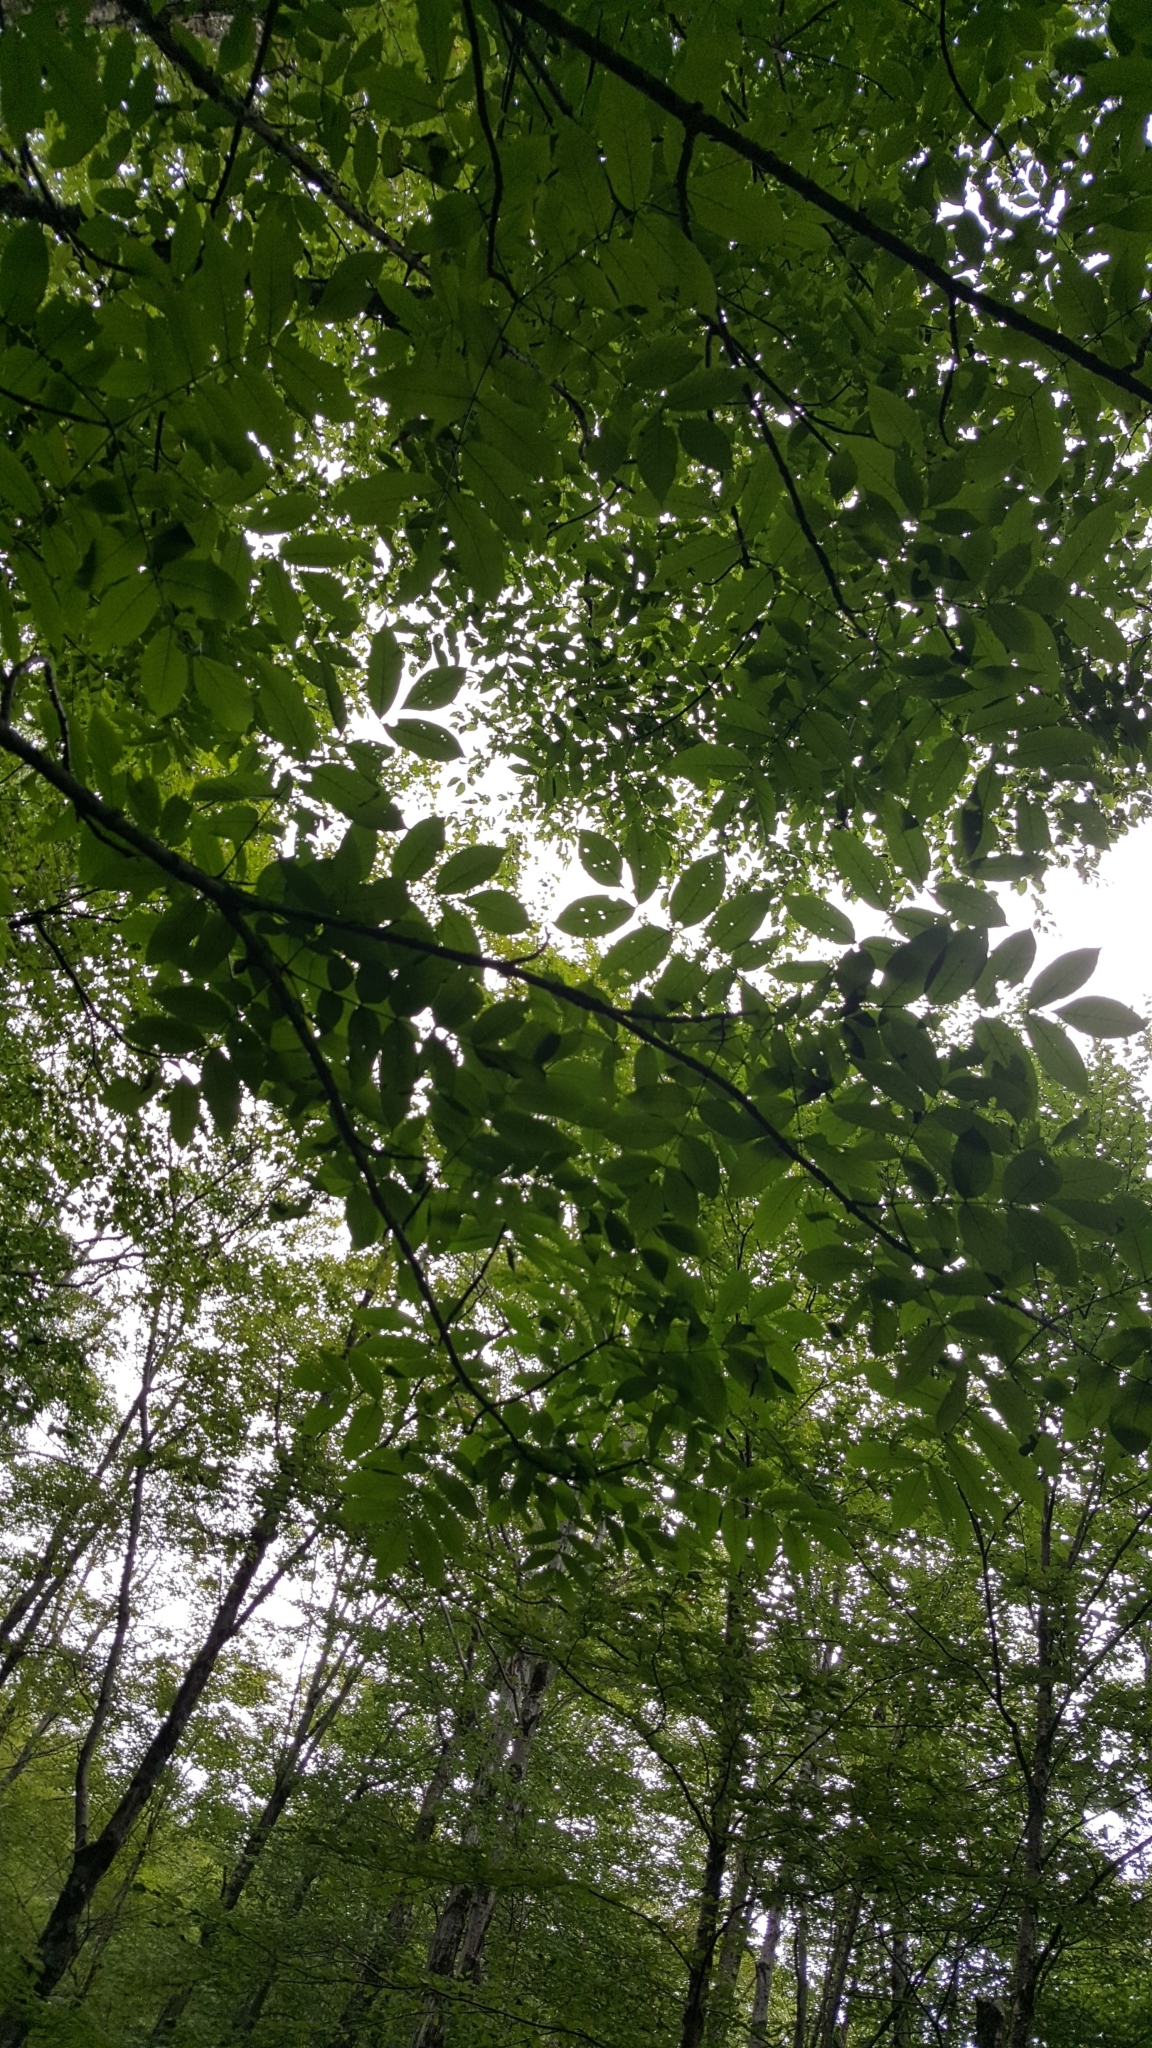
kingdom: Plantae
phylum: Tracheophyta
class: Magnoliopsida
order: Lamiales
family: Oleaceae
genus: Fraxinus
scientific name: Fraxinus nigra
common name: Black ash
